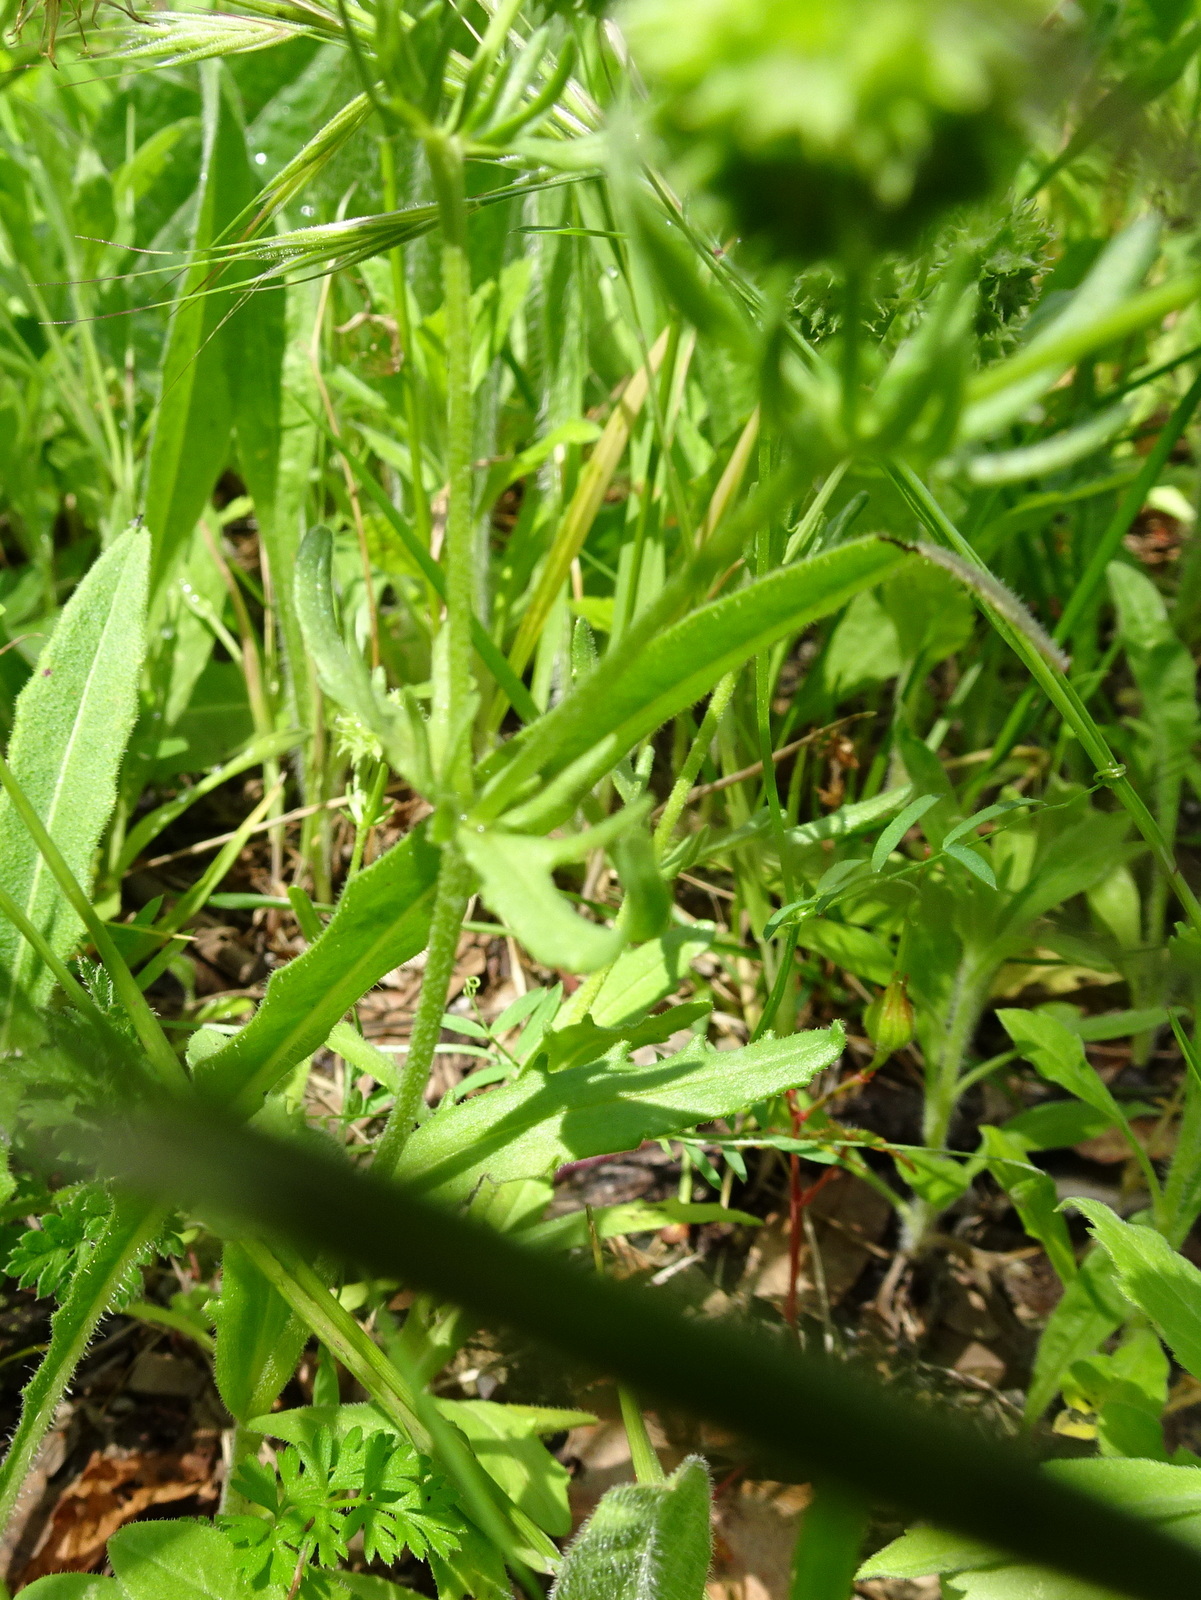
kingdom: Plantae
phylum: Tracheophyta
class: Magnoliopsida
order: Dipsacales
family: Caprifoliaceae
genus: Valerianella
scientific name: Valerianella discoidea
